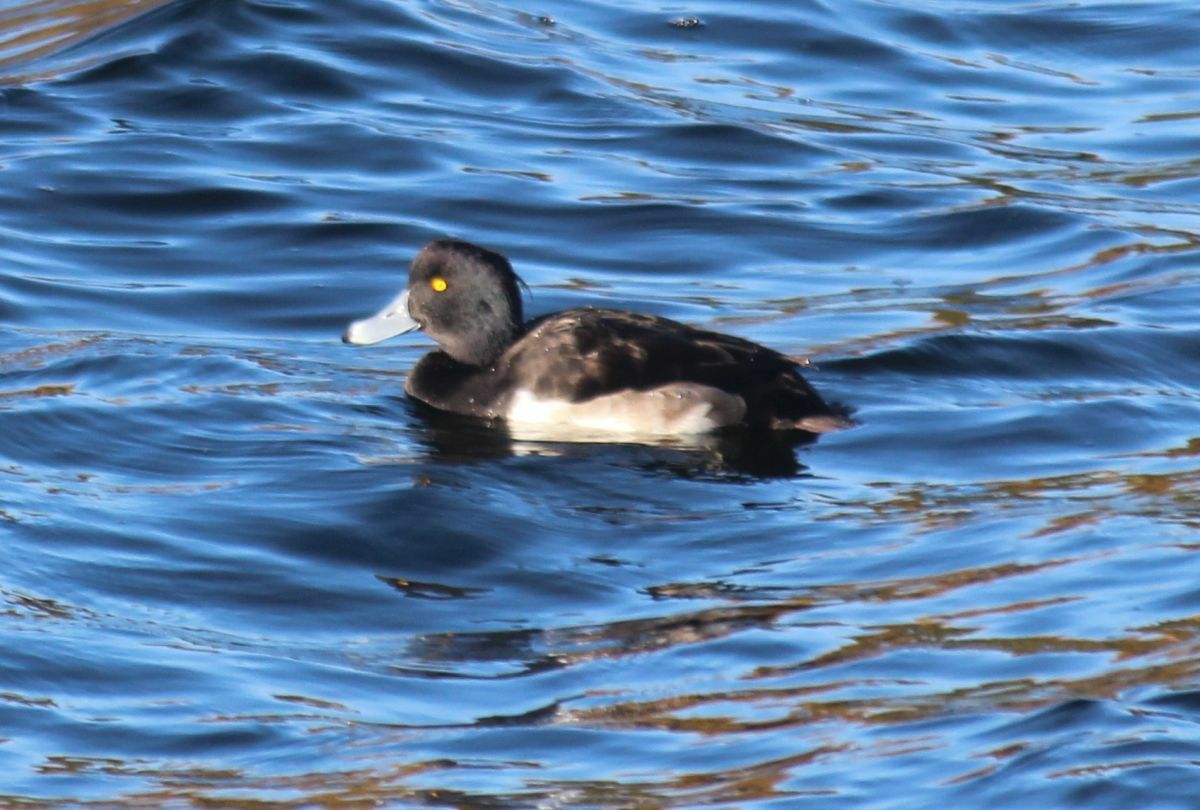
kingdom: Animalia
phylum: Chordata
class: Aves
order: Anseriformes
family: Anatidae
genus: Aythya
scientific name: Aythya fuligula
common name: Tufted duck
